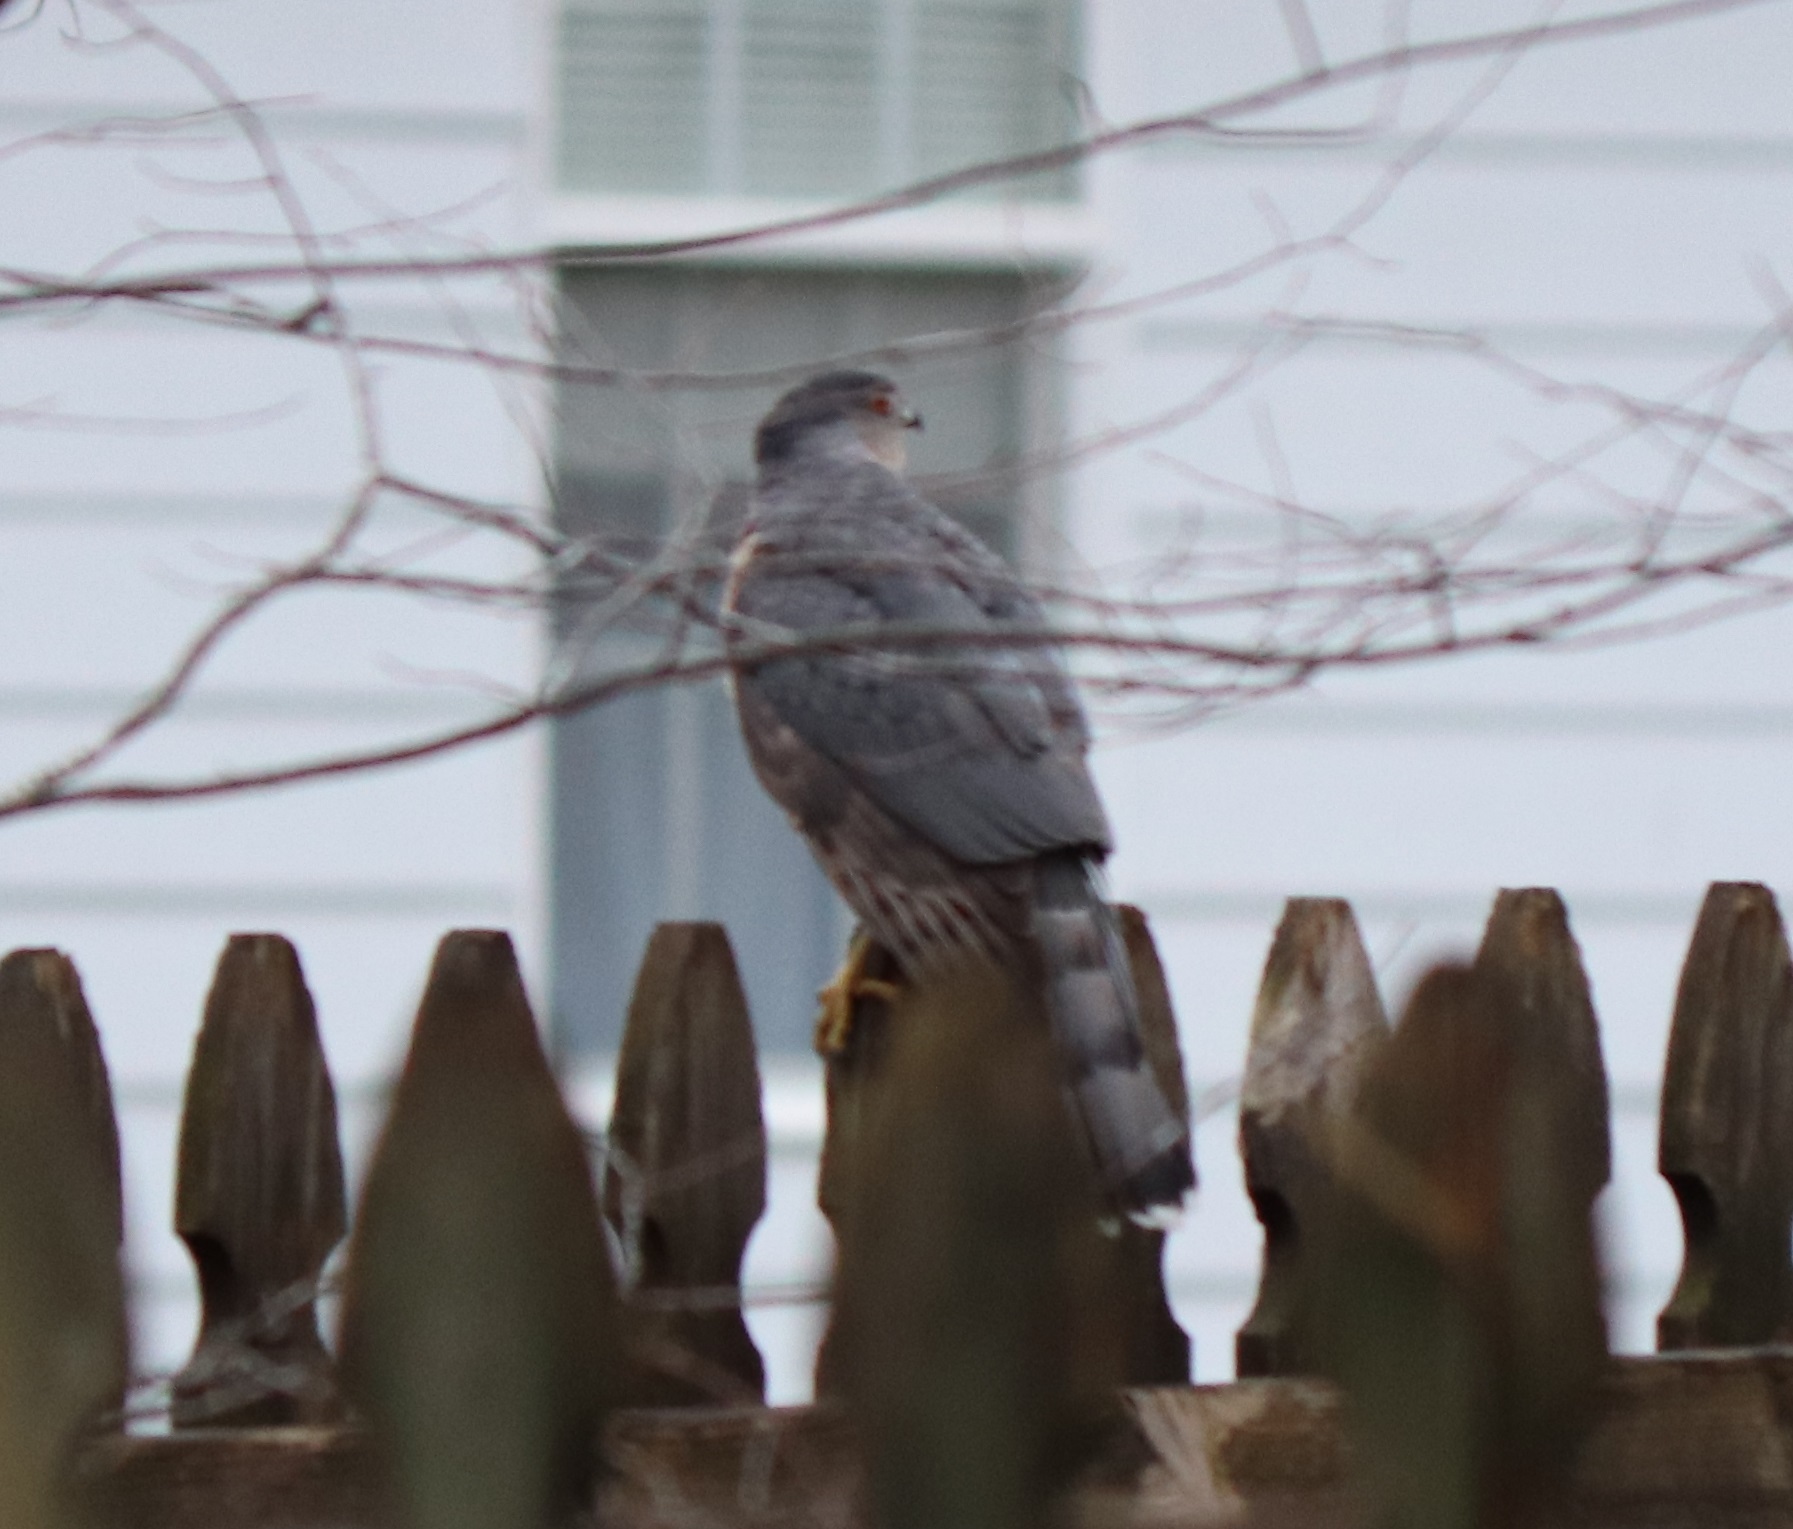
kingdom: Animalia
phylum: Chordata
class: Aves
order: Accipitriformes
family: Accipitridae
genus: Accipiter
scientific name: Accipiter cooperii
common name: Cooper's hawk
